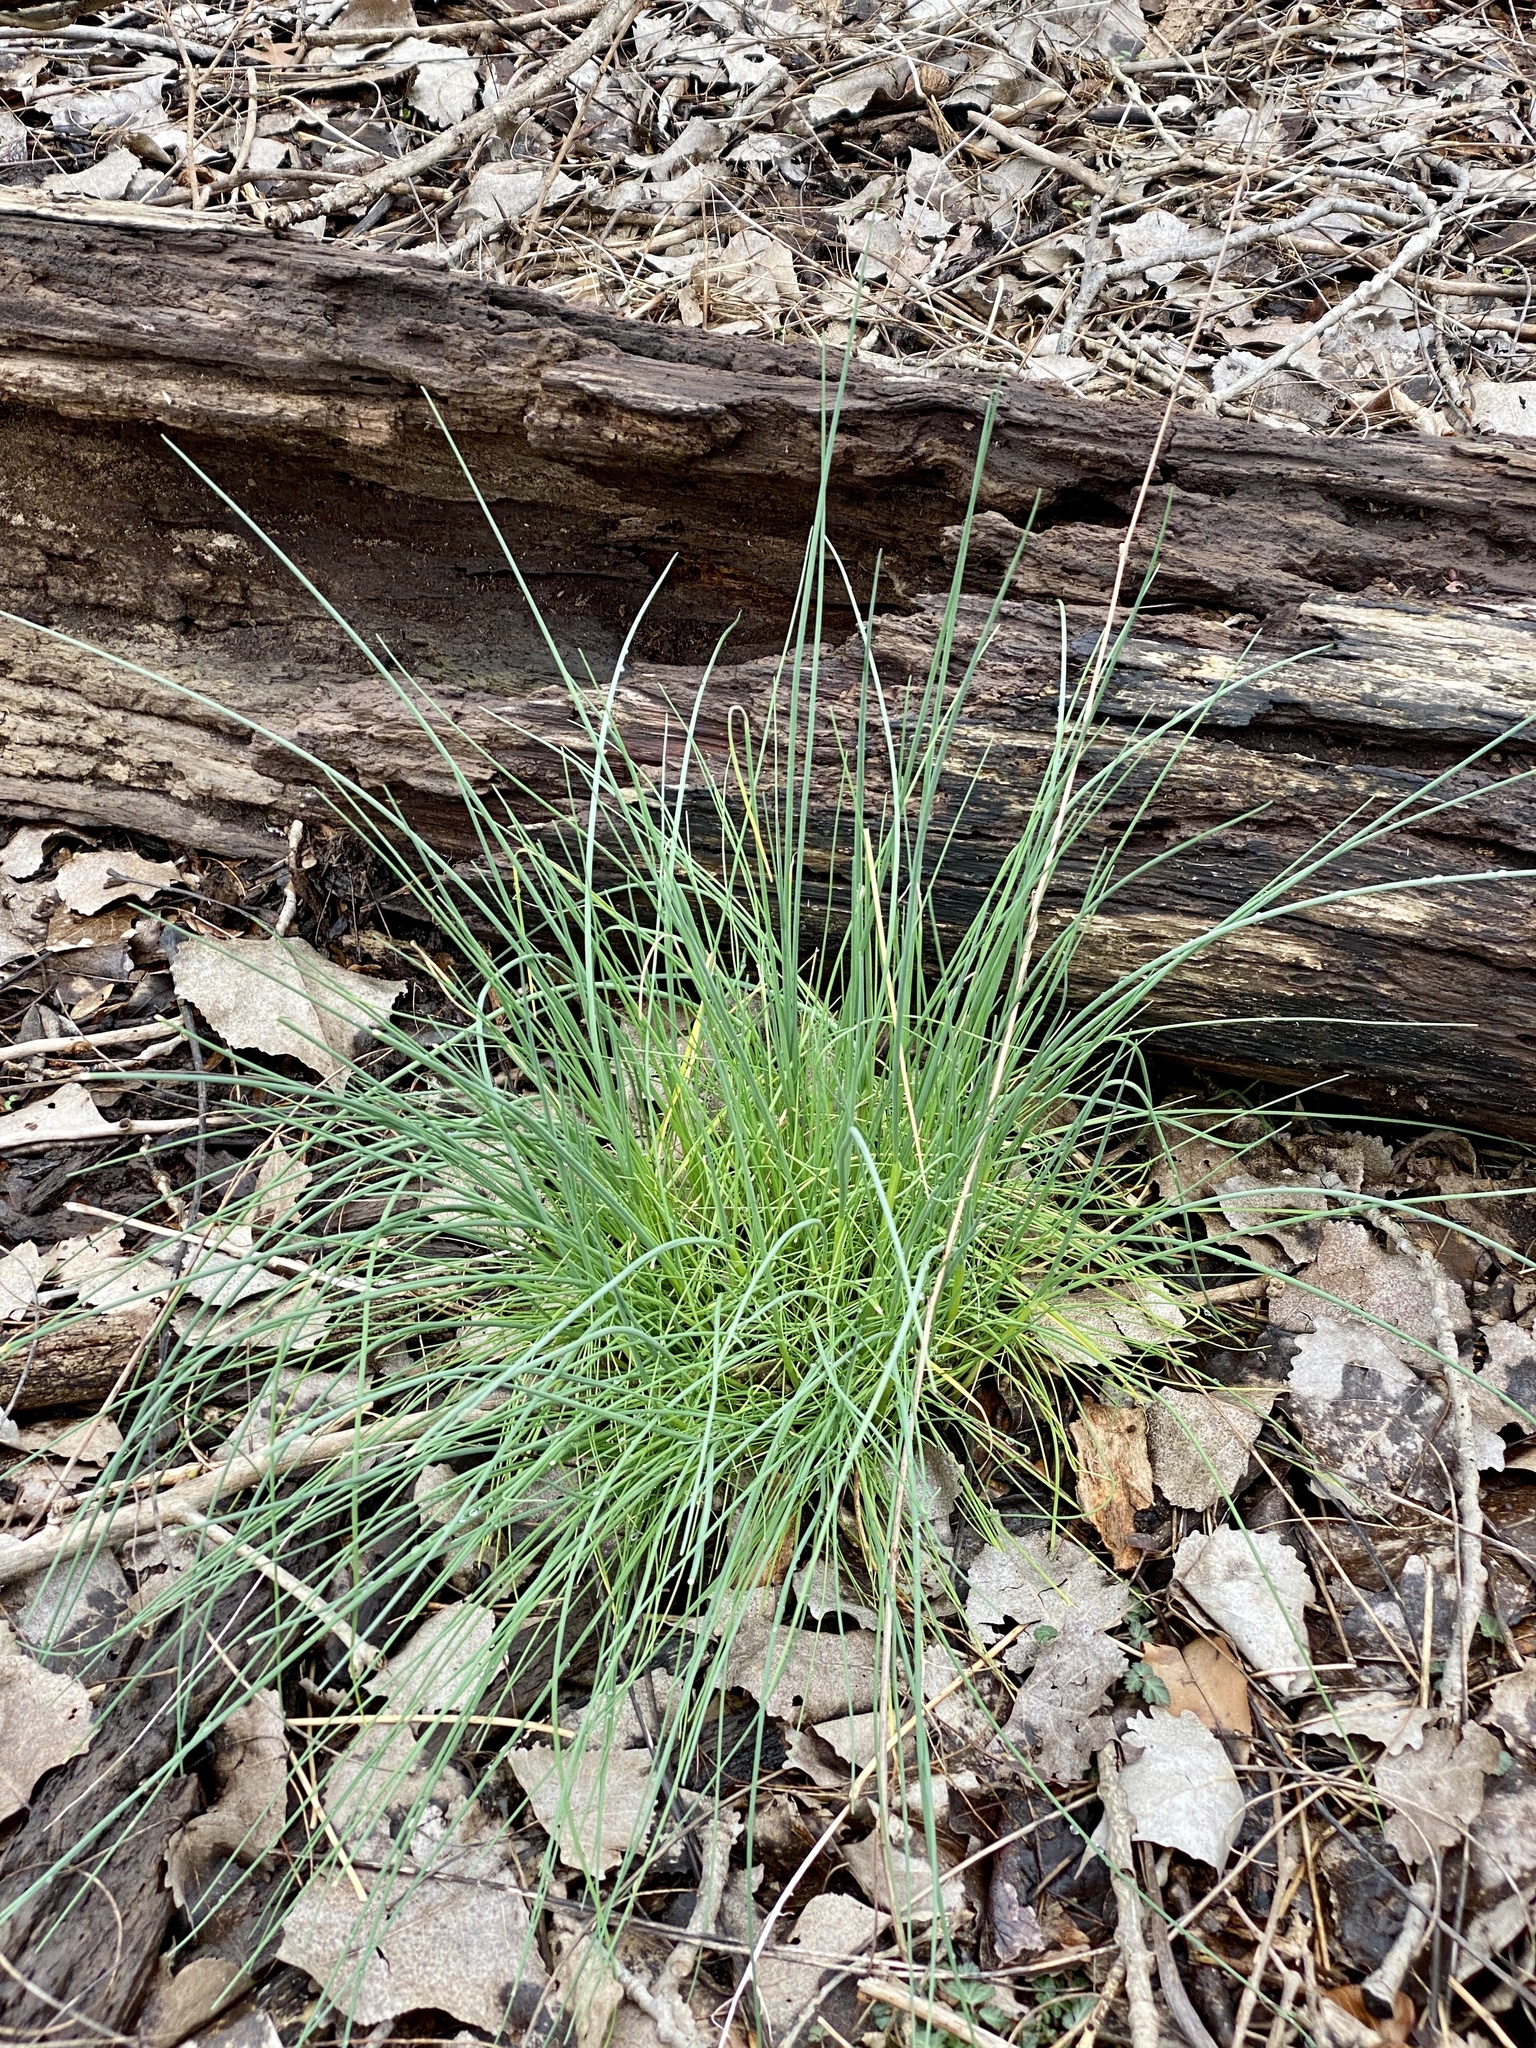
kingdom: Plantae
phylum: Tracheophyta
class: Liliopsida
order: Asparagales
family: Amaryllidaceae
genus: Allium
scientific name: Allium vineale
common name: Crow garlic
